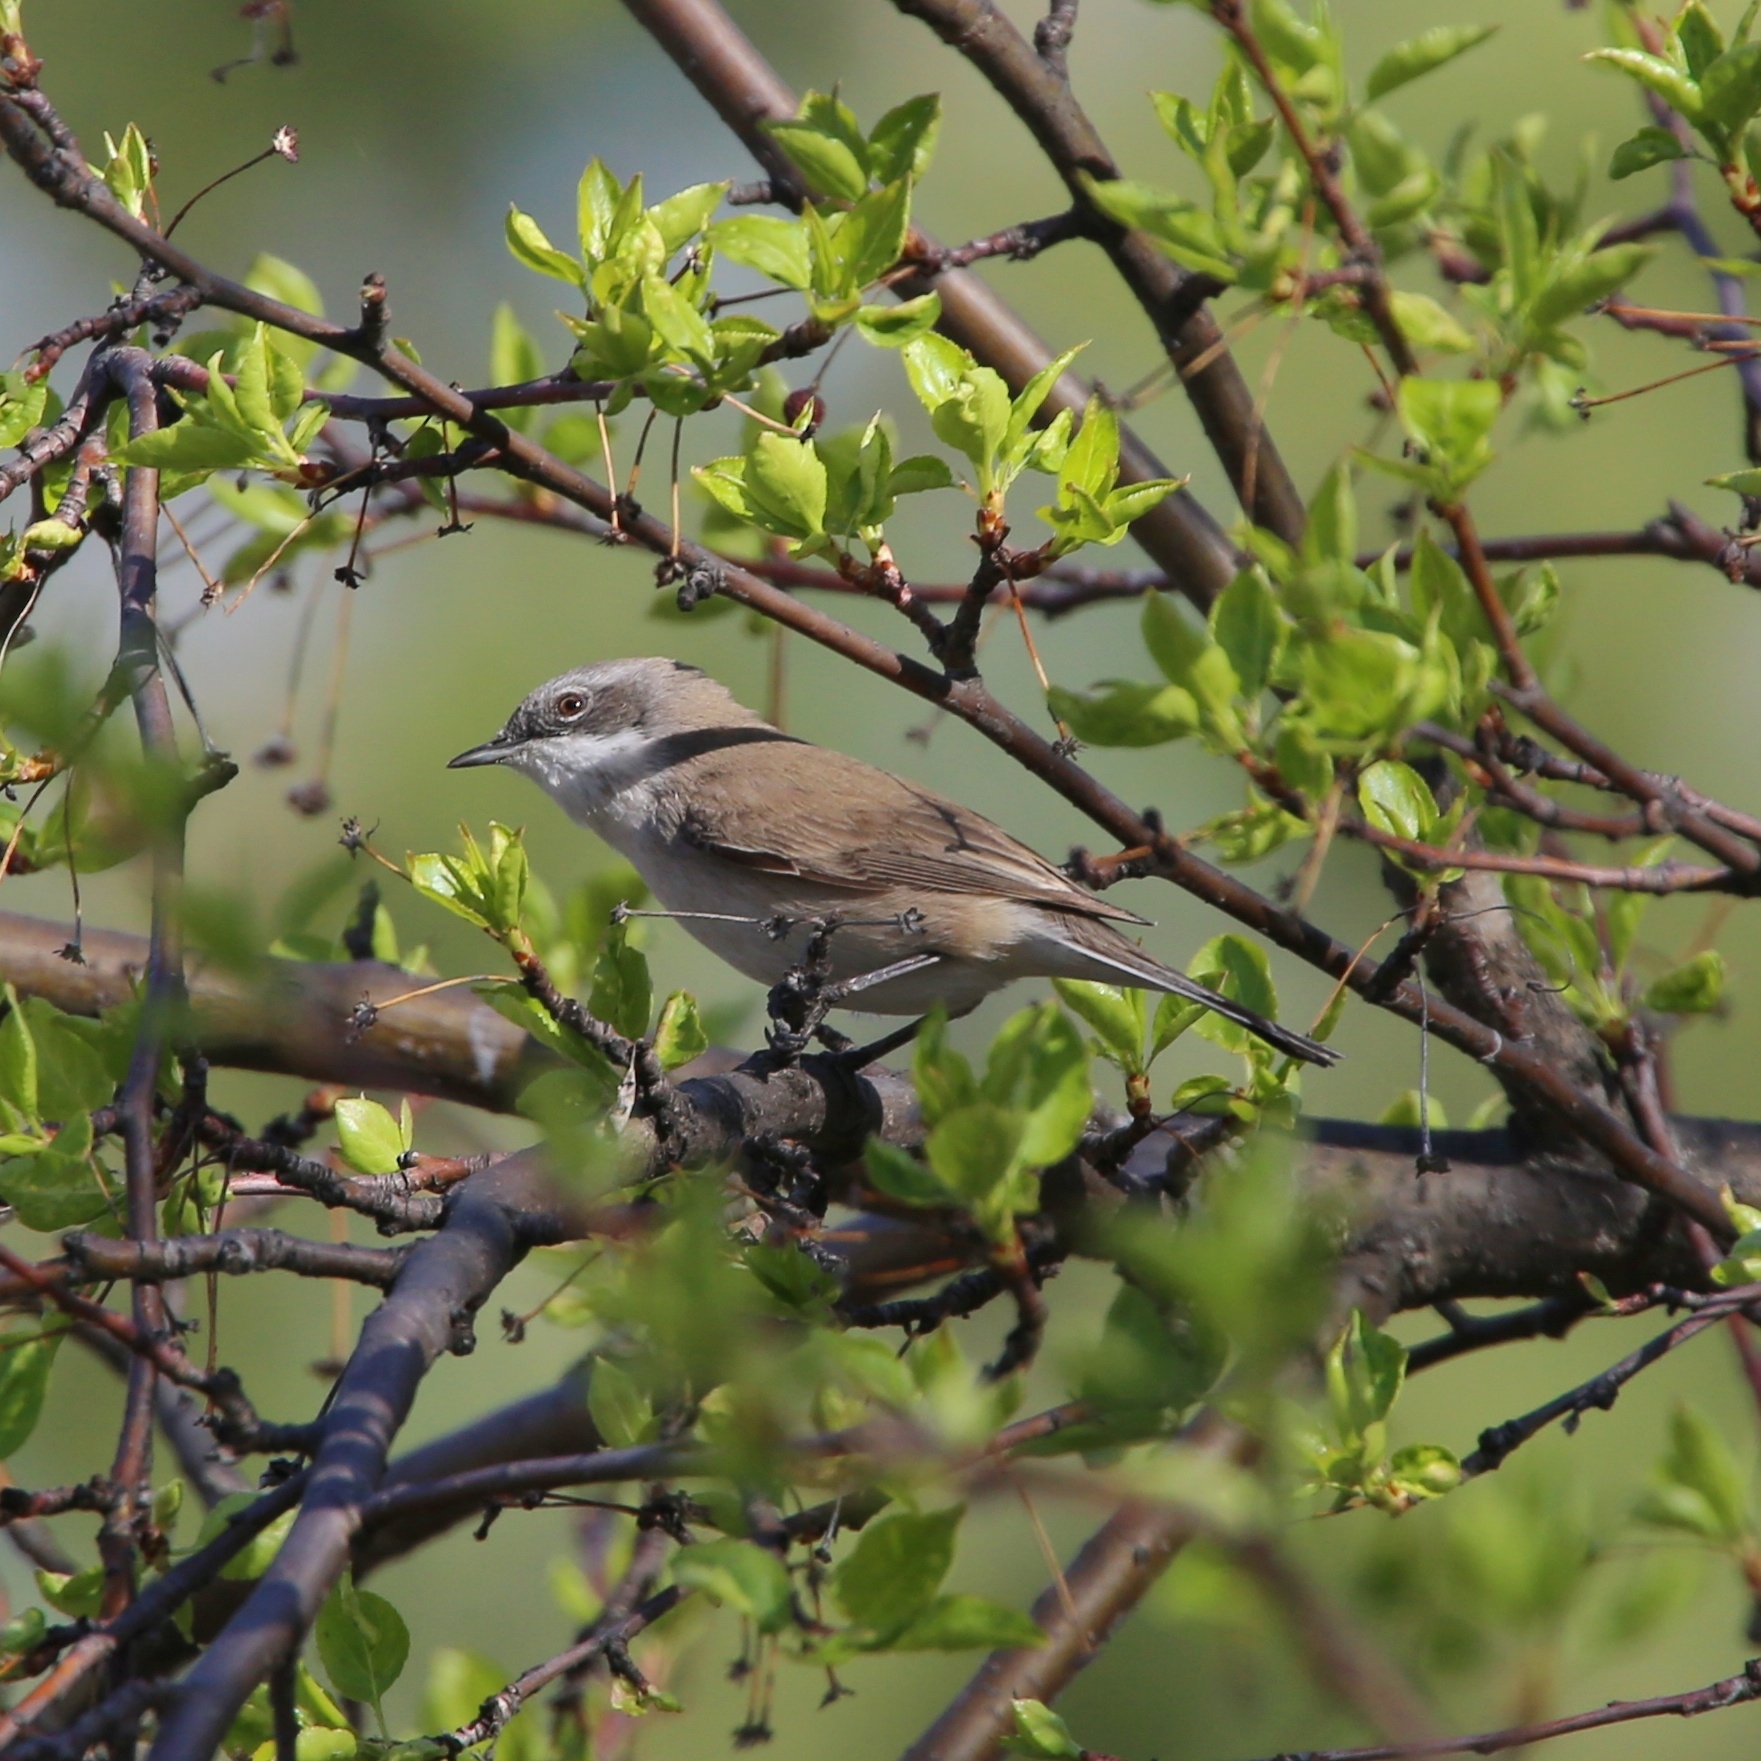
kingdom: Animalia
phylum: Chordata
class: Aves
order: Passeriformes
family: Sylviidae
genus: Sylvia
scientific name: Sylvia curruca
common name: Lesser whitethroat
